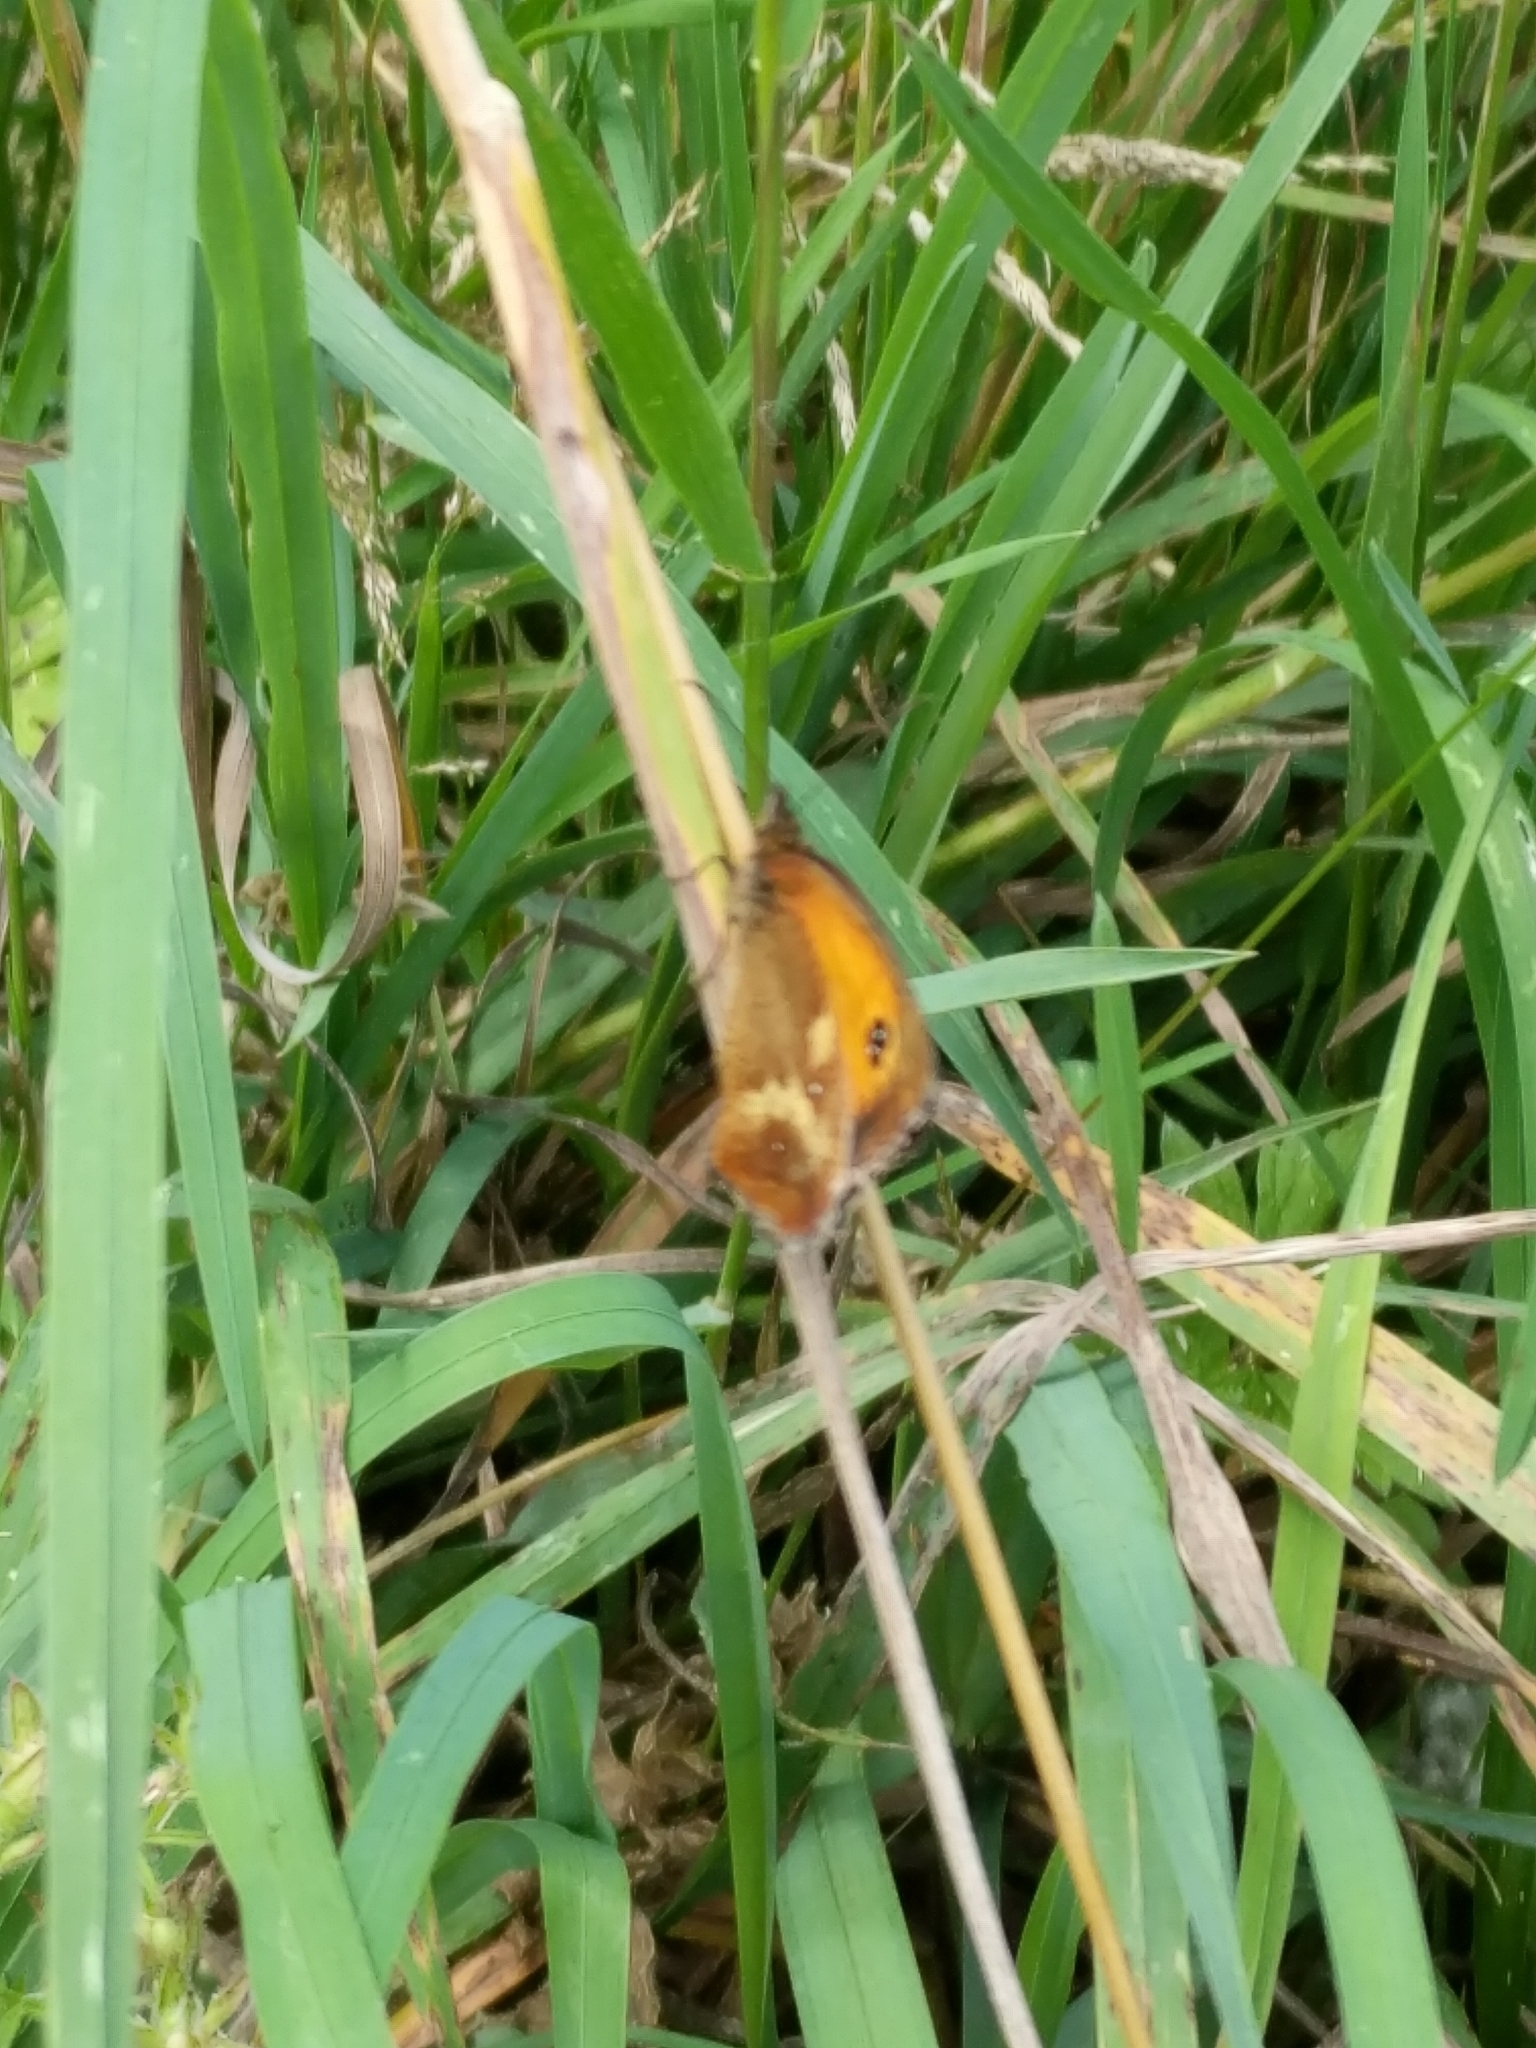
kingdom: Animalia
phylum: Arthropoda
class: Insecta
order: Lepidoptera
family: Nymphalidae
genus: Pyronia
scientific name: Pyronia tithonus
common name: Gatekeeper
